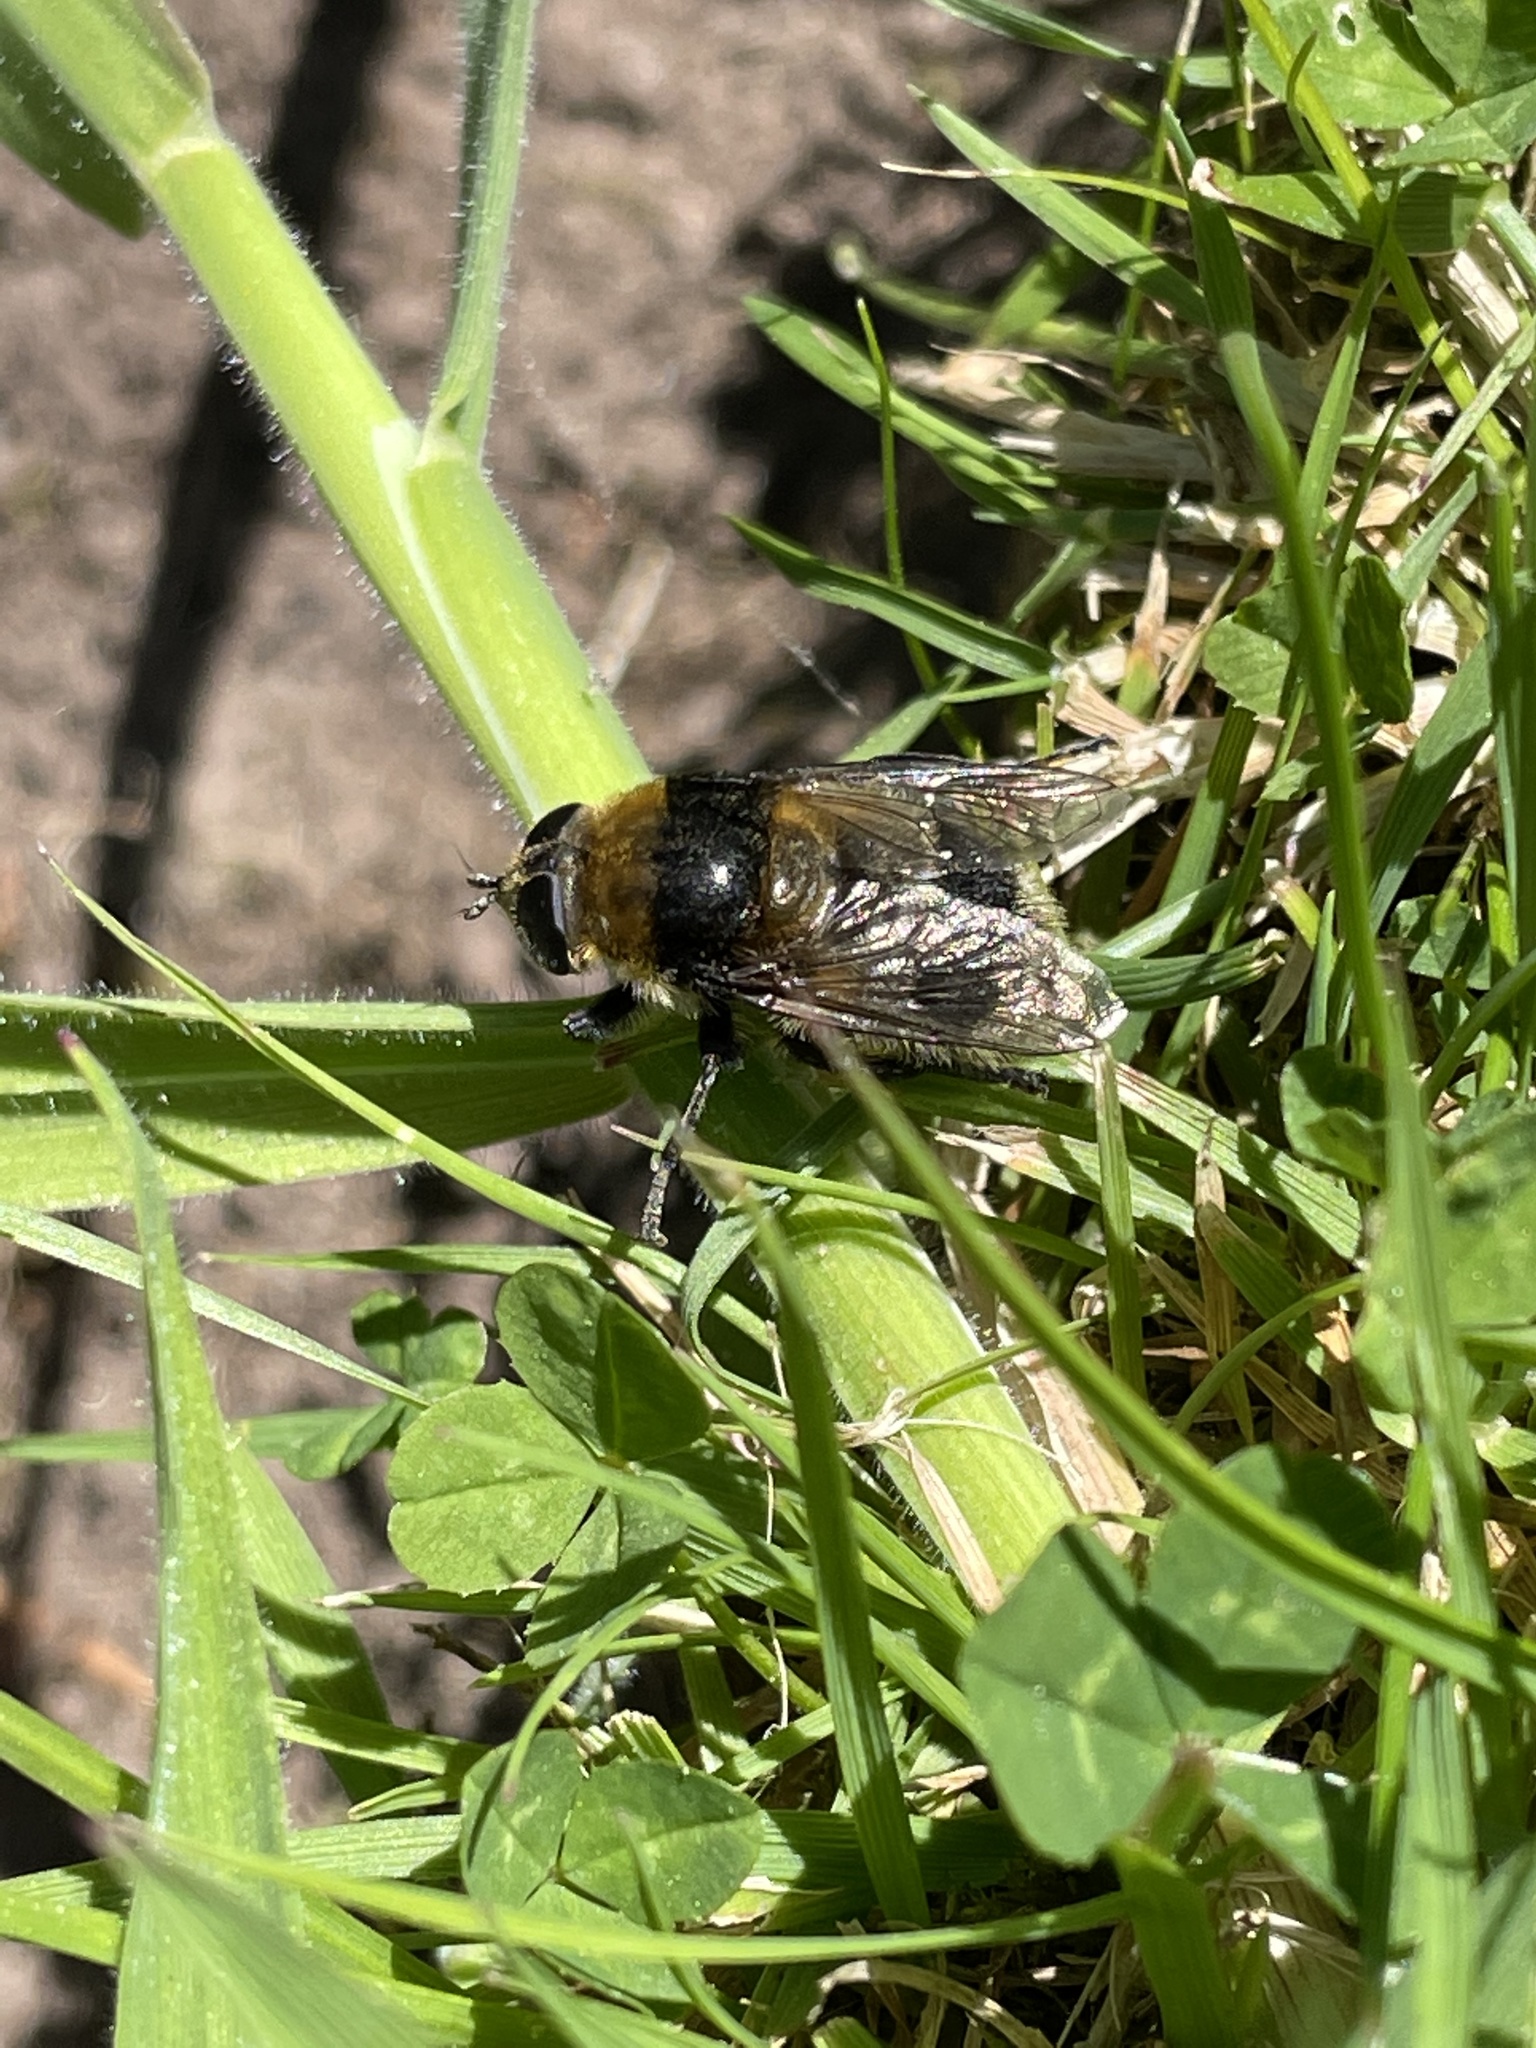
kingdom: Animalia
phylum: Arthropoda
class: Insecta
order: Diptera
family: Syrphidae
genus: Merodon
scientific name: Merodon equestris
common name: Greater bulb-fly
